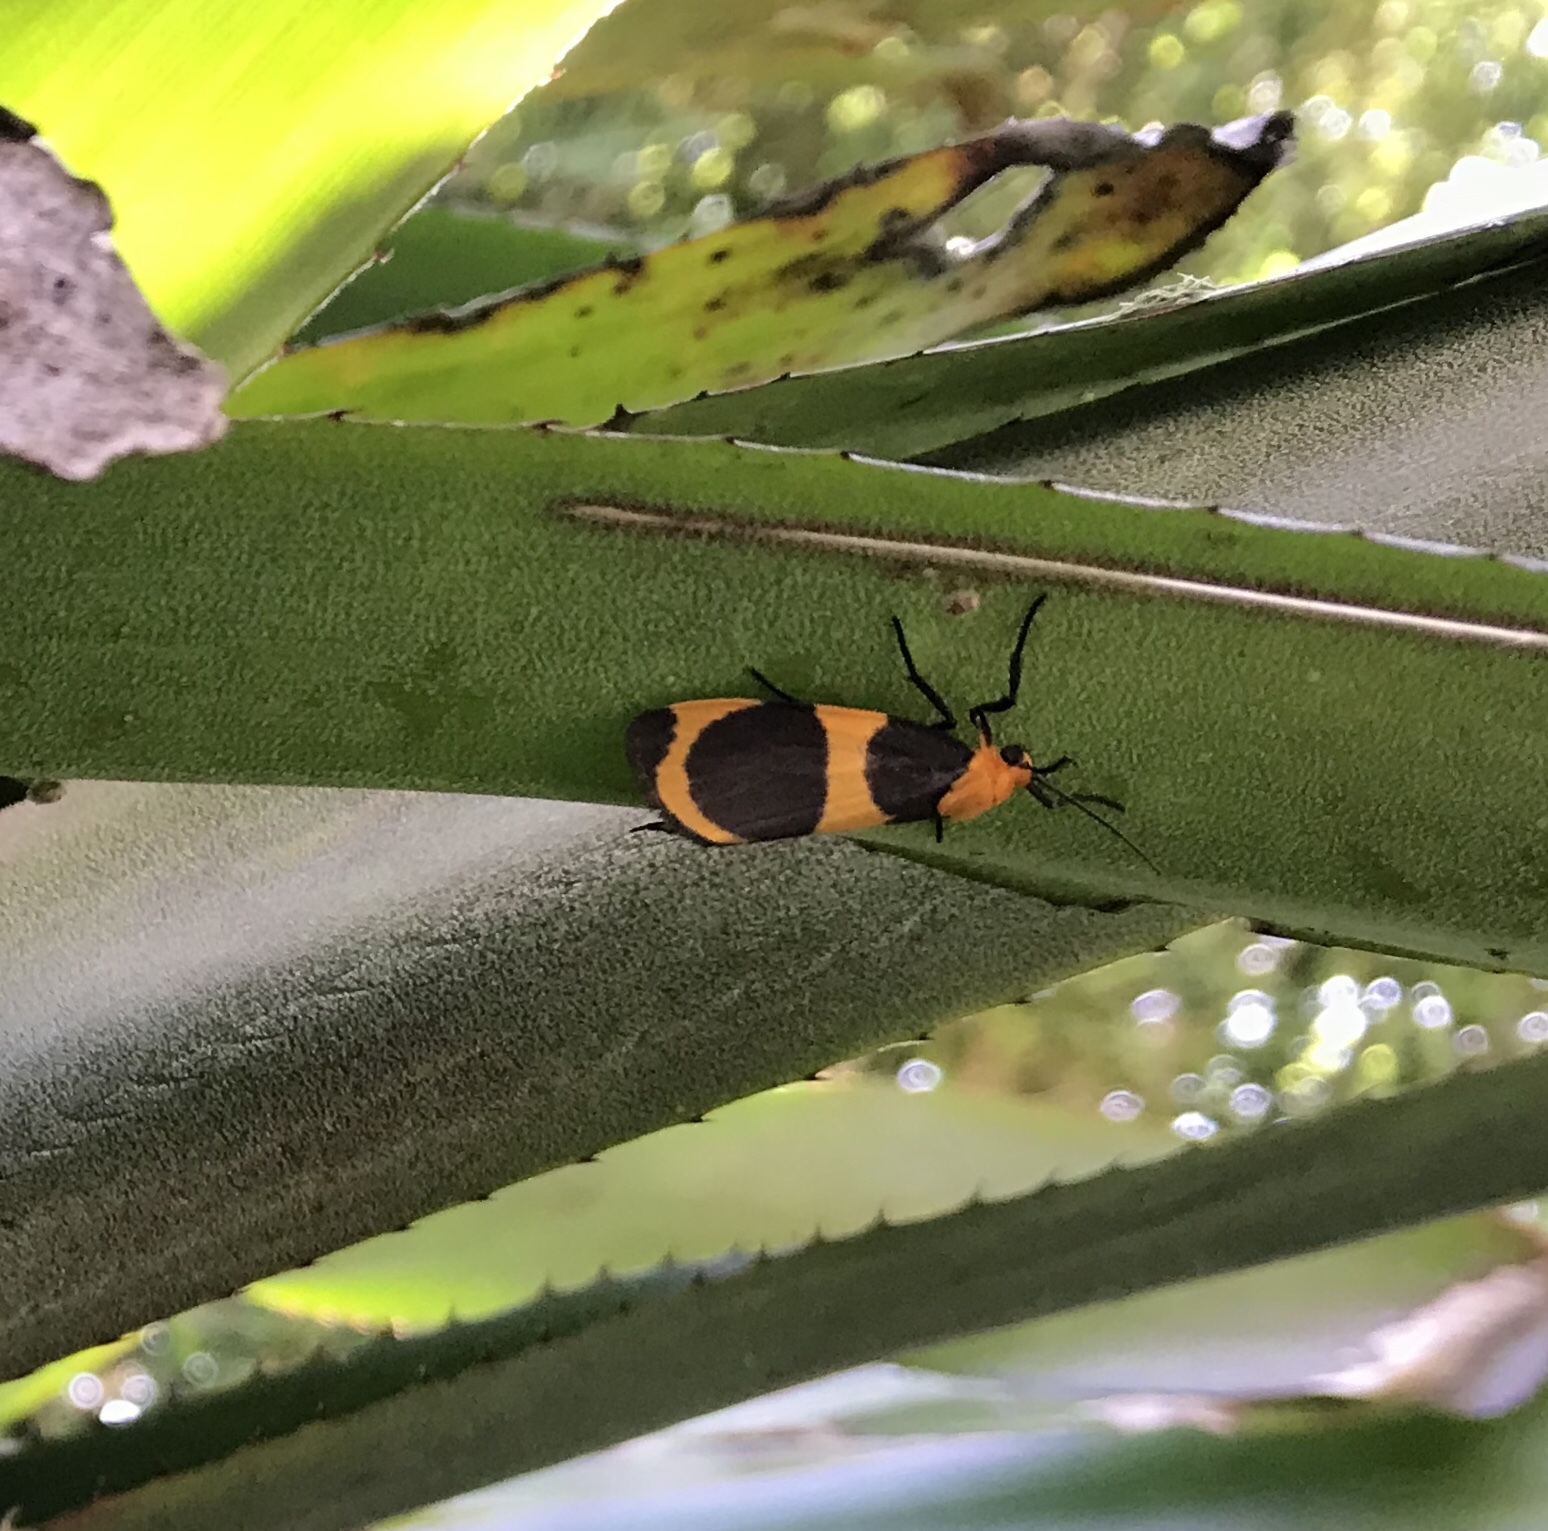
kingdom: Animalia
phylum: Arthropoda
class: Insecta
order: Lepidoptera
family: Erebidae
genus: Eudesmia
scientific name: Eudesmia menea
